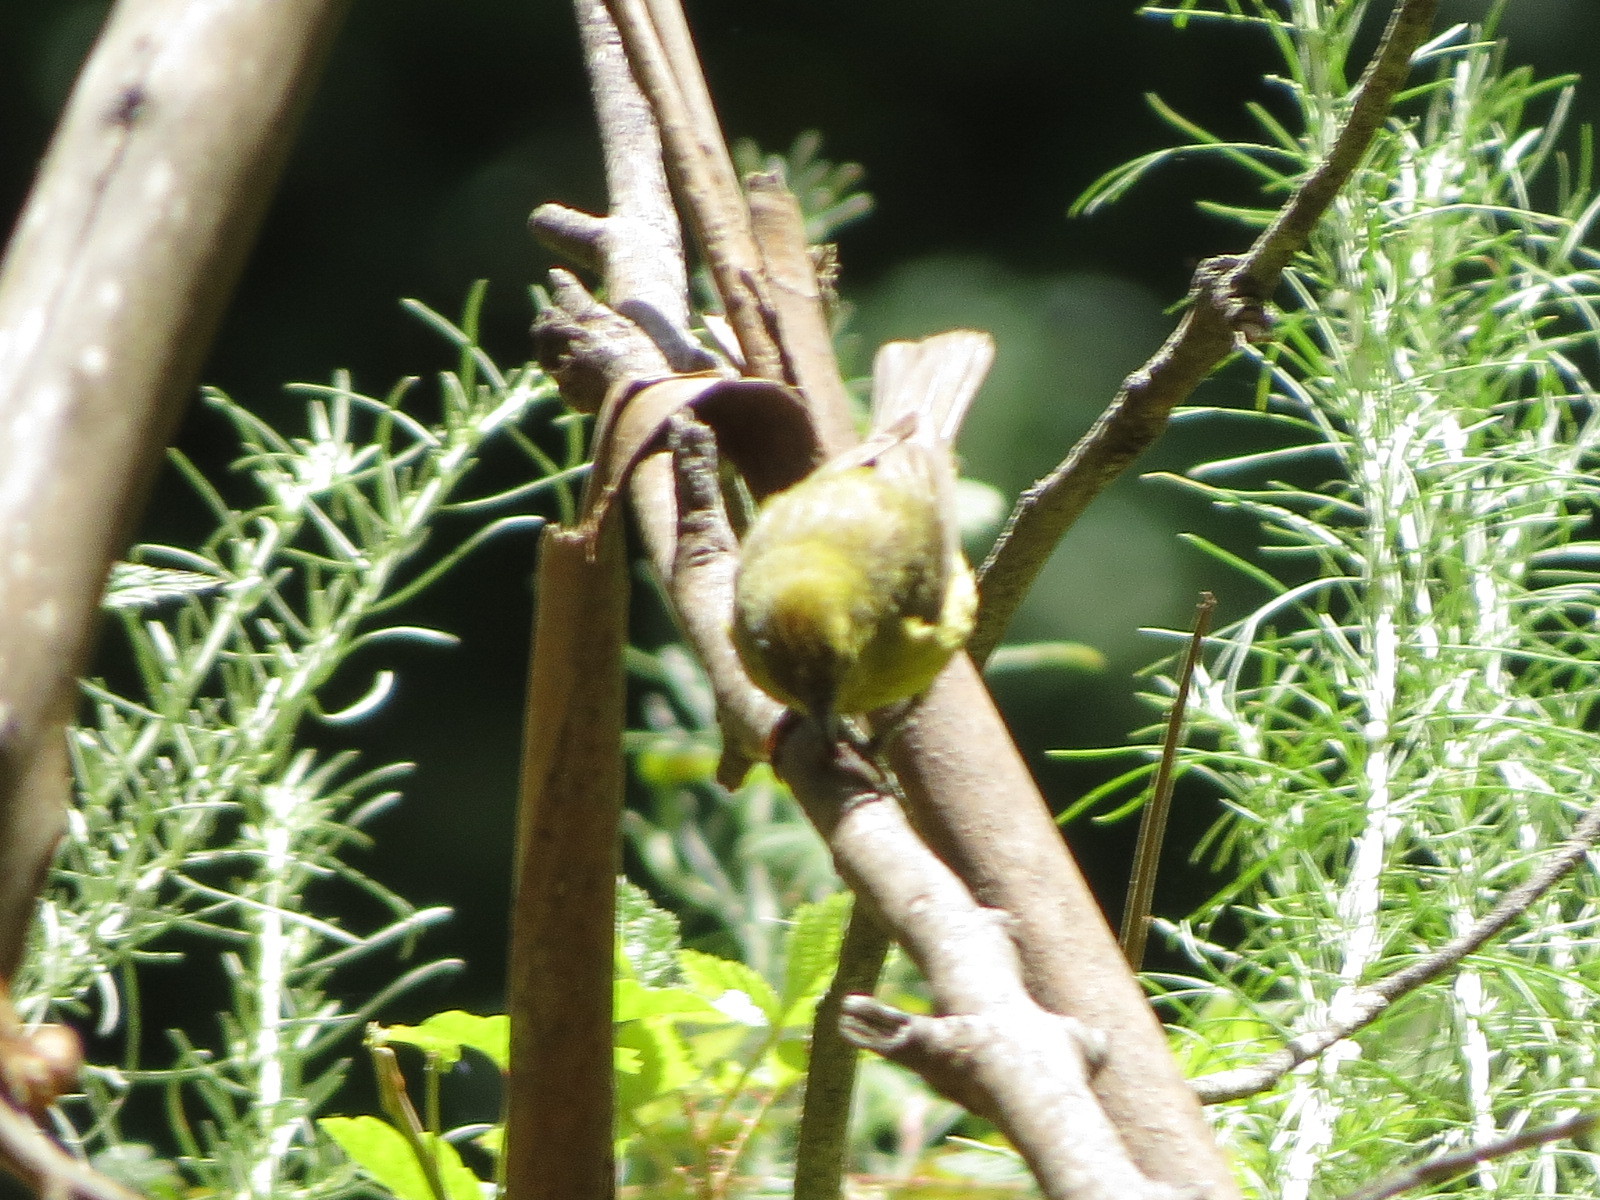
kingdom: Animalia
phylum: Chordata
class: Aves
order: Passeriformes
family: Parulidae
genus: Leiothlypis
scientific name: Leiothlypis celata
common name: Orange-crowned warbler
